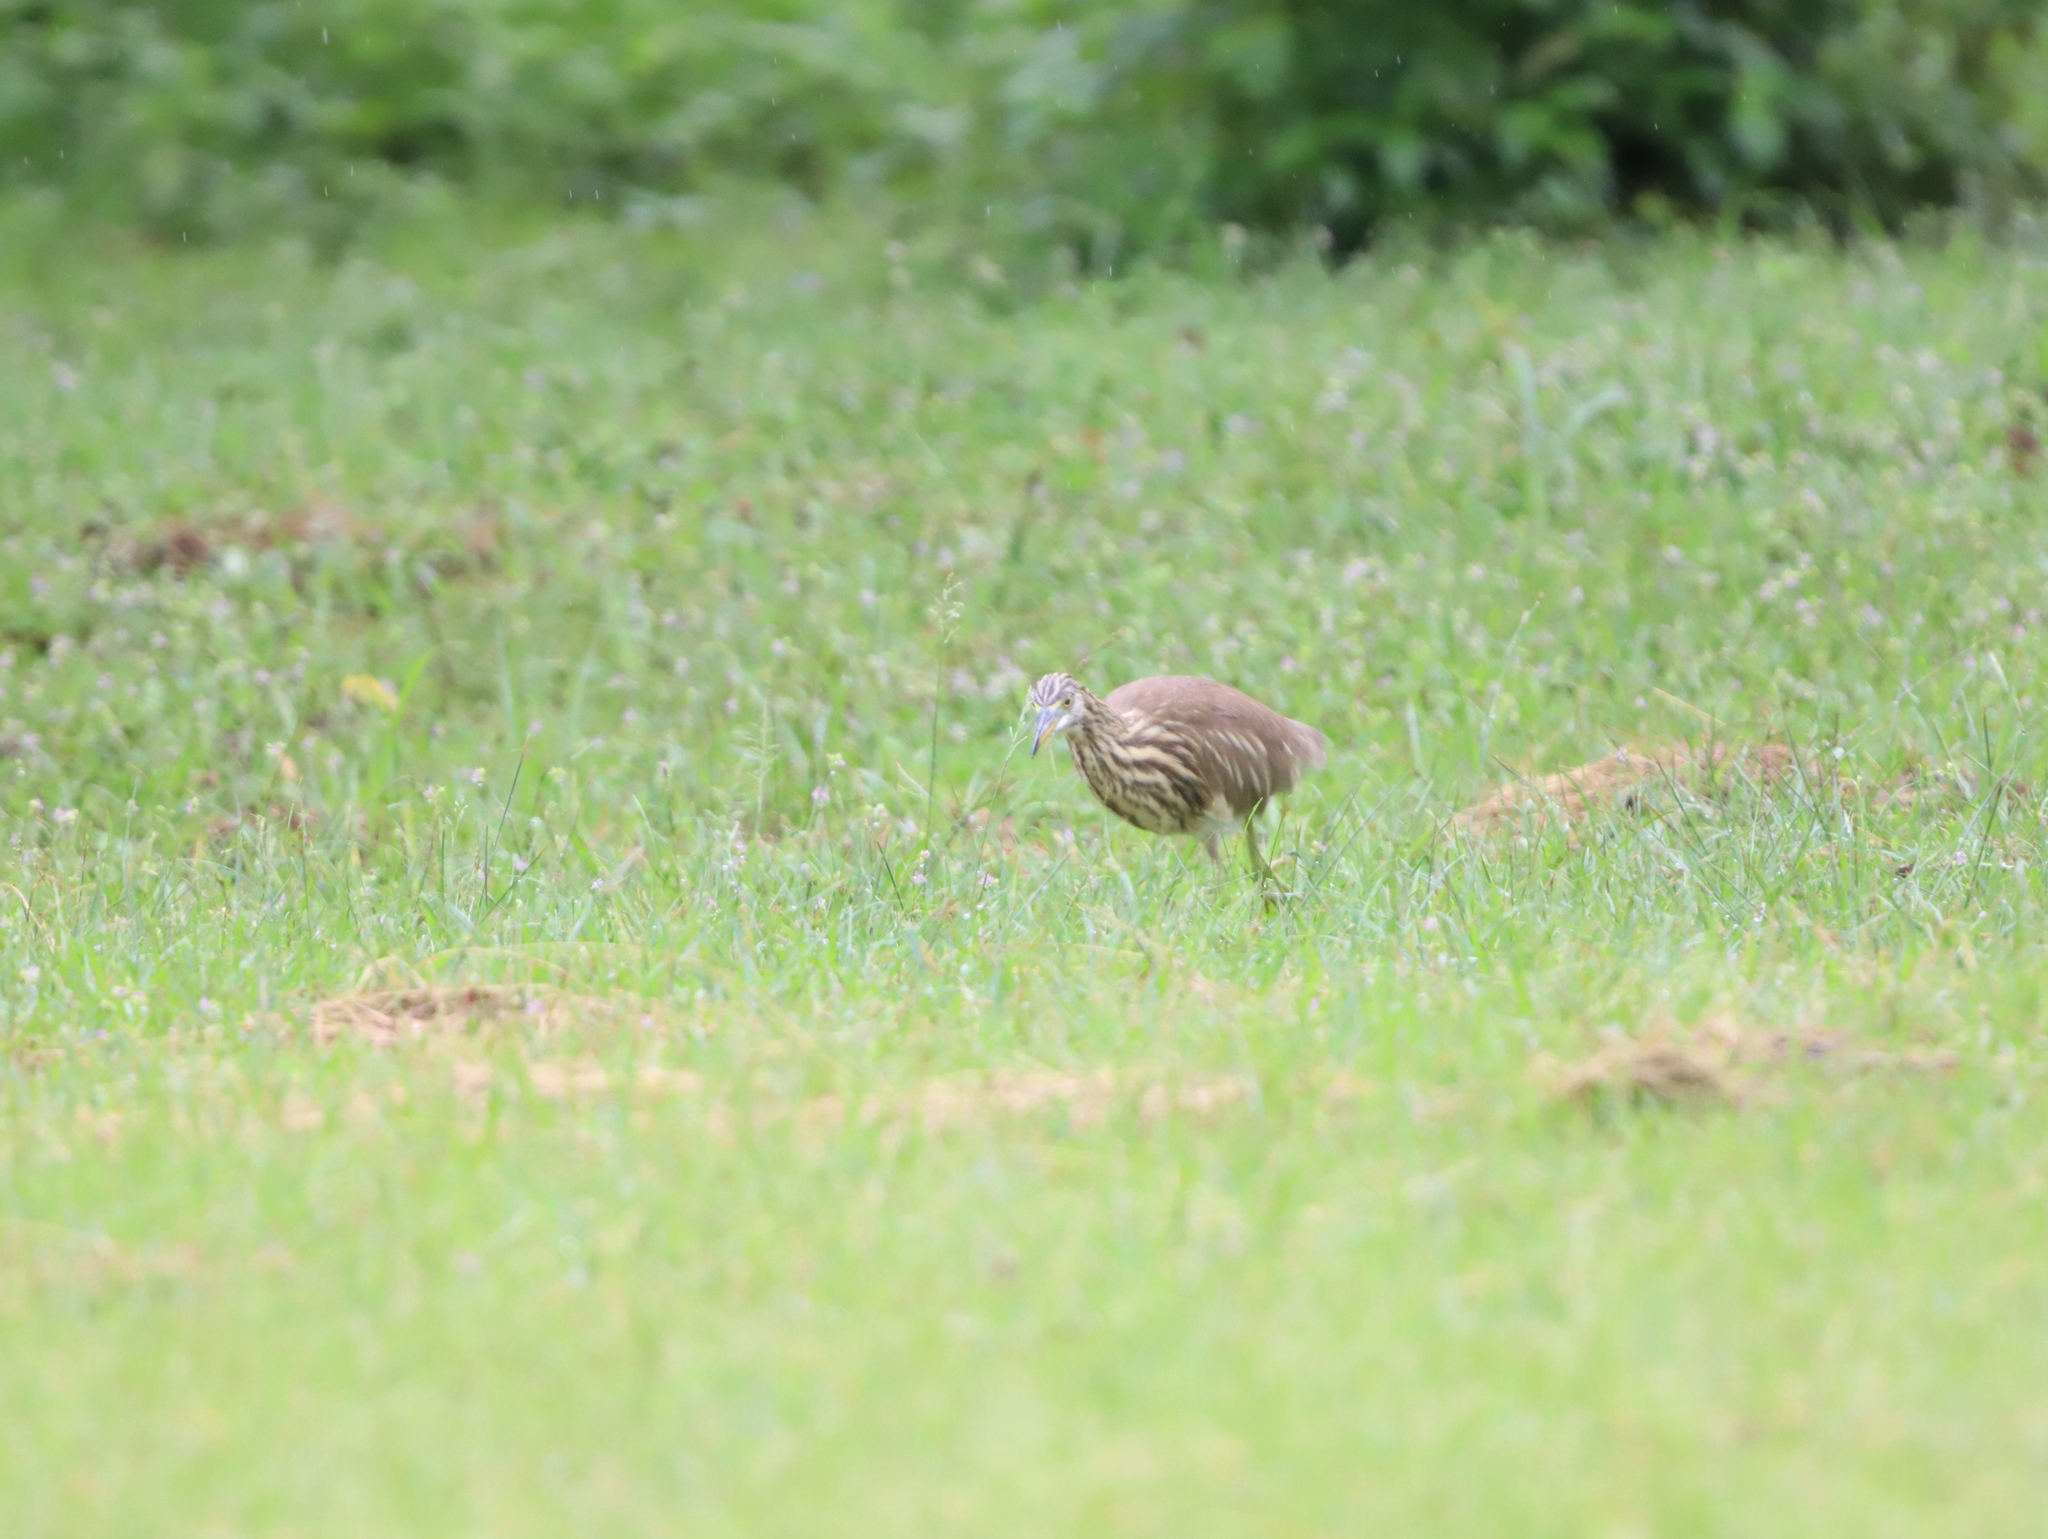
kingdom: Animalia
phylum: Chordata
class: Aves
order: Pelecaniformes
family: Ardeidae
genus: Ardeola
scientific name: Ardeola grayii
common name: Indian pond heron
